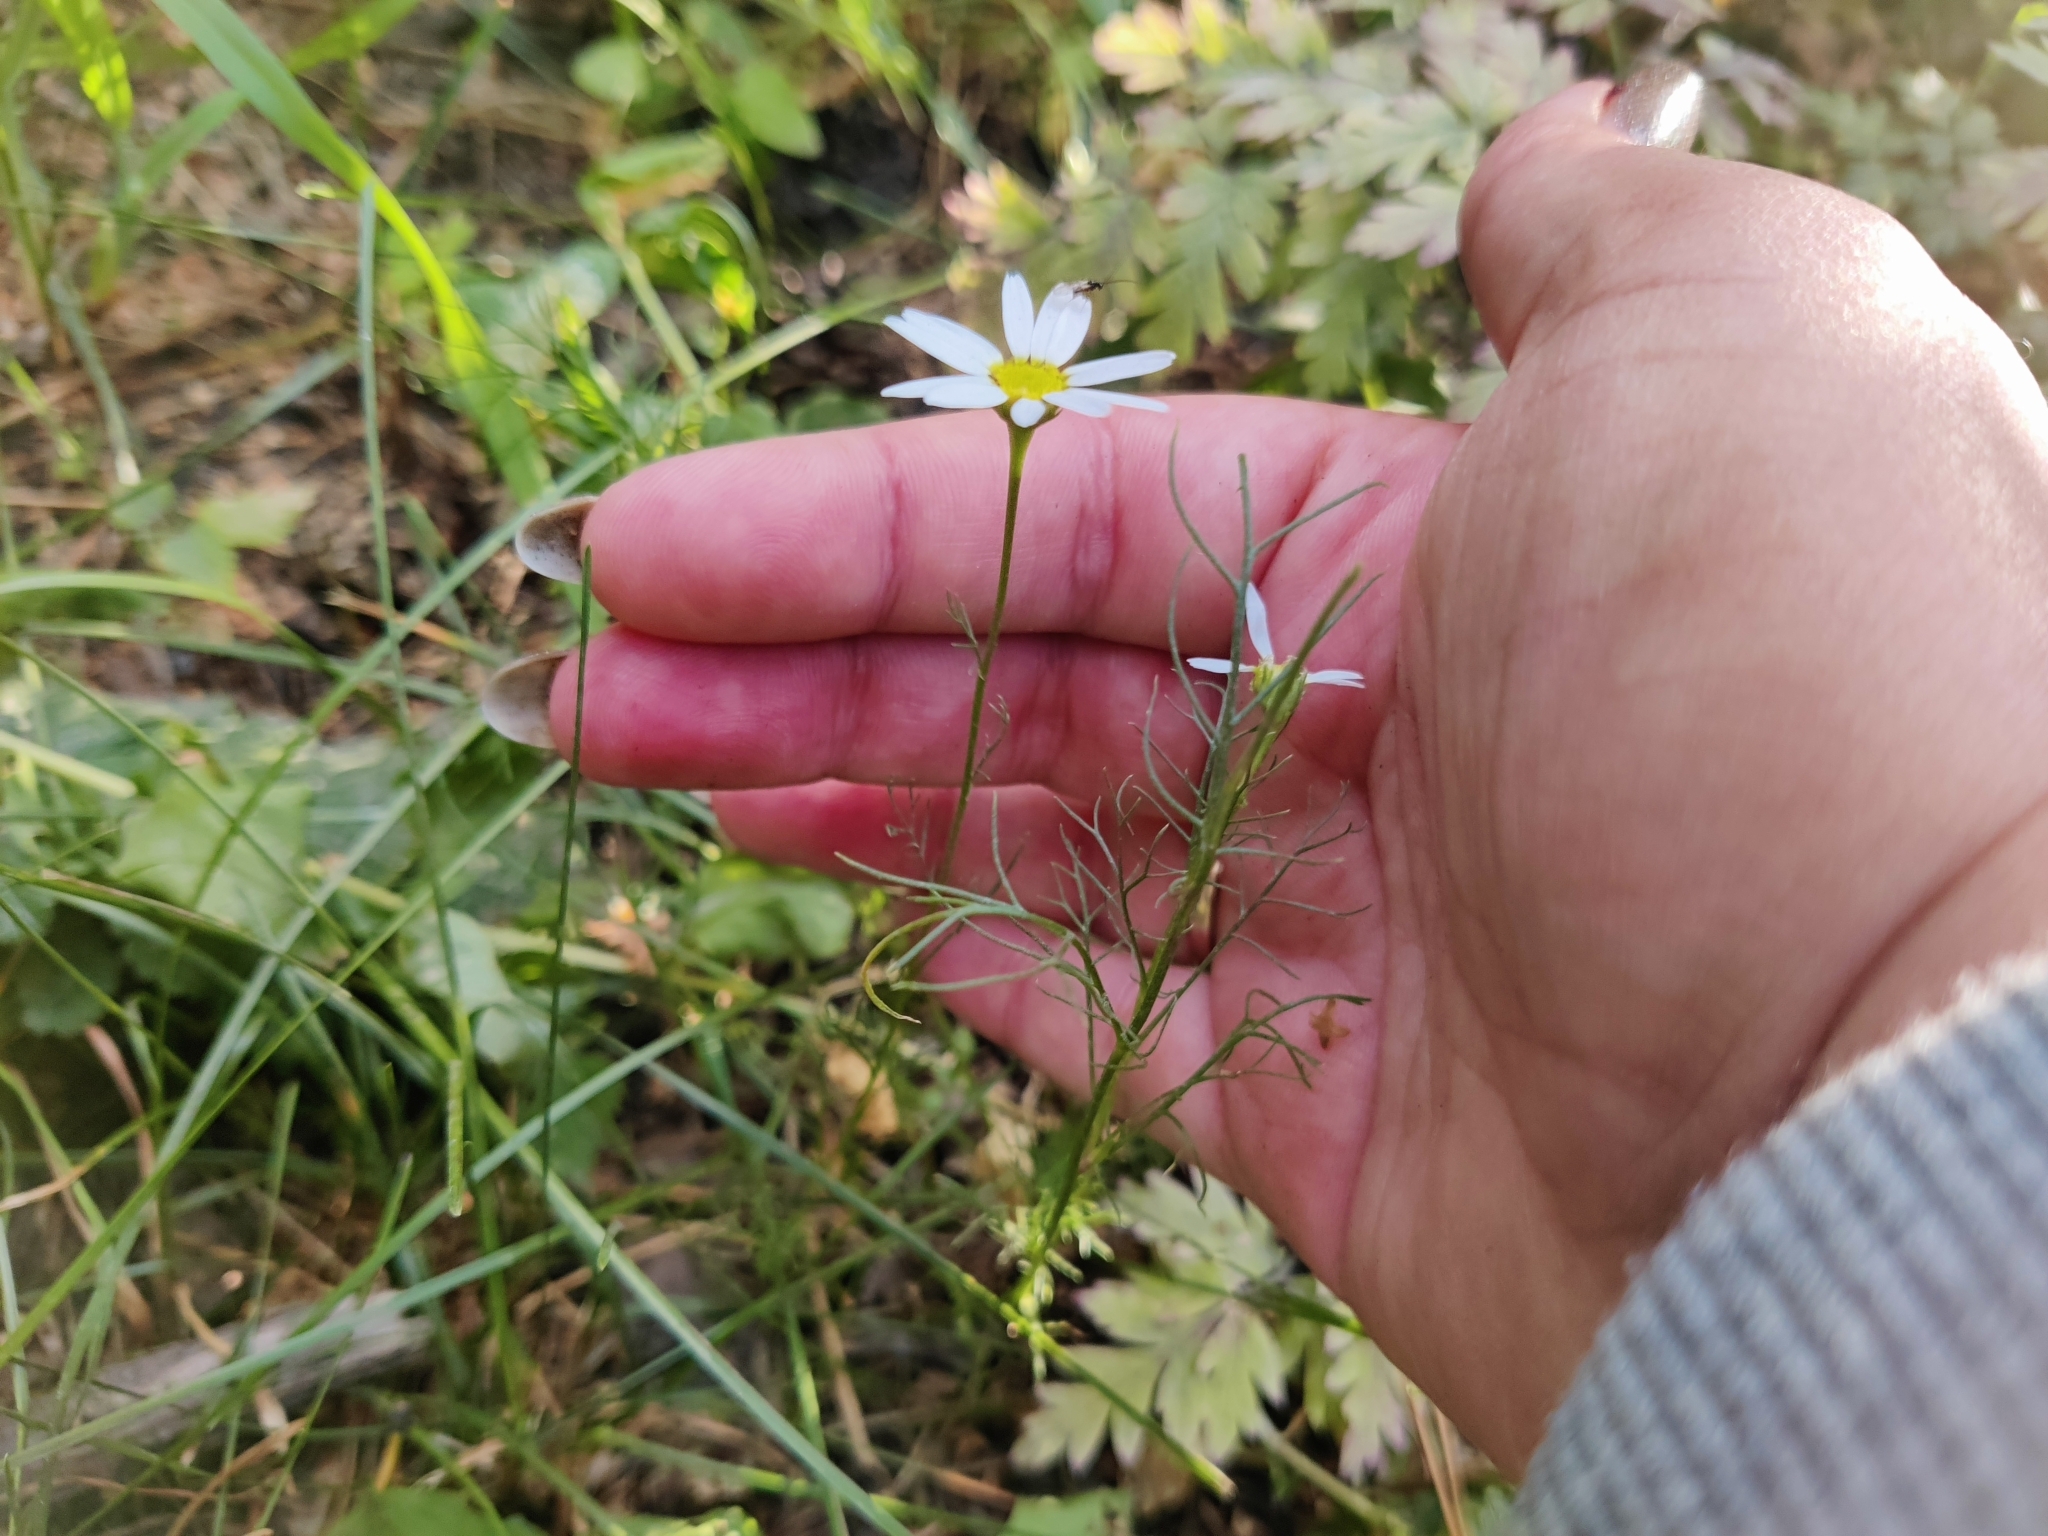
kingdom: Plantae
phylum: Tracheophyta
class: Magnoliopsida
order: Asterales
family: Asteraceae
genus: Tripleurospermum
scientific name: Tripleurospermum inodorum
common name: Scentless mayweed
